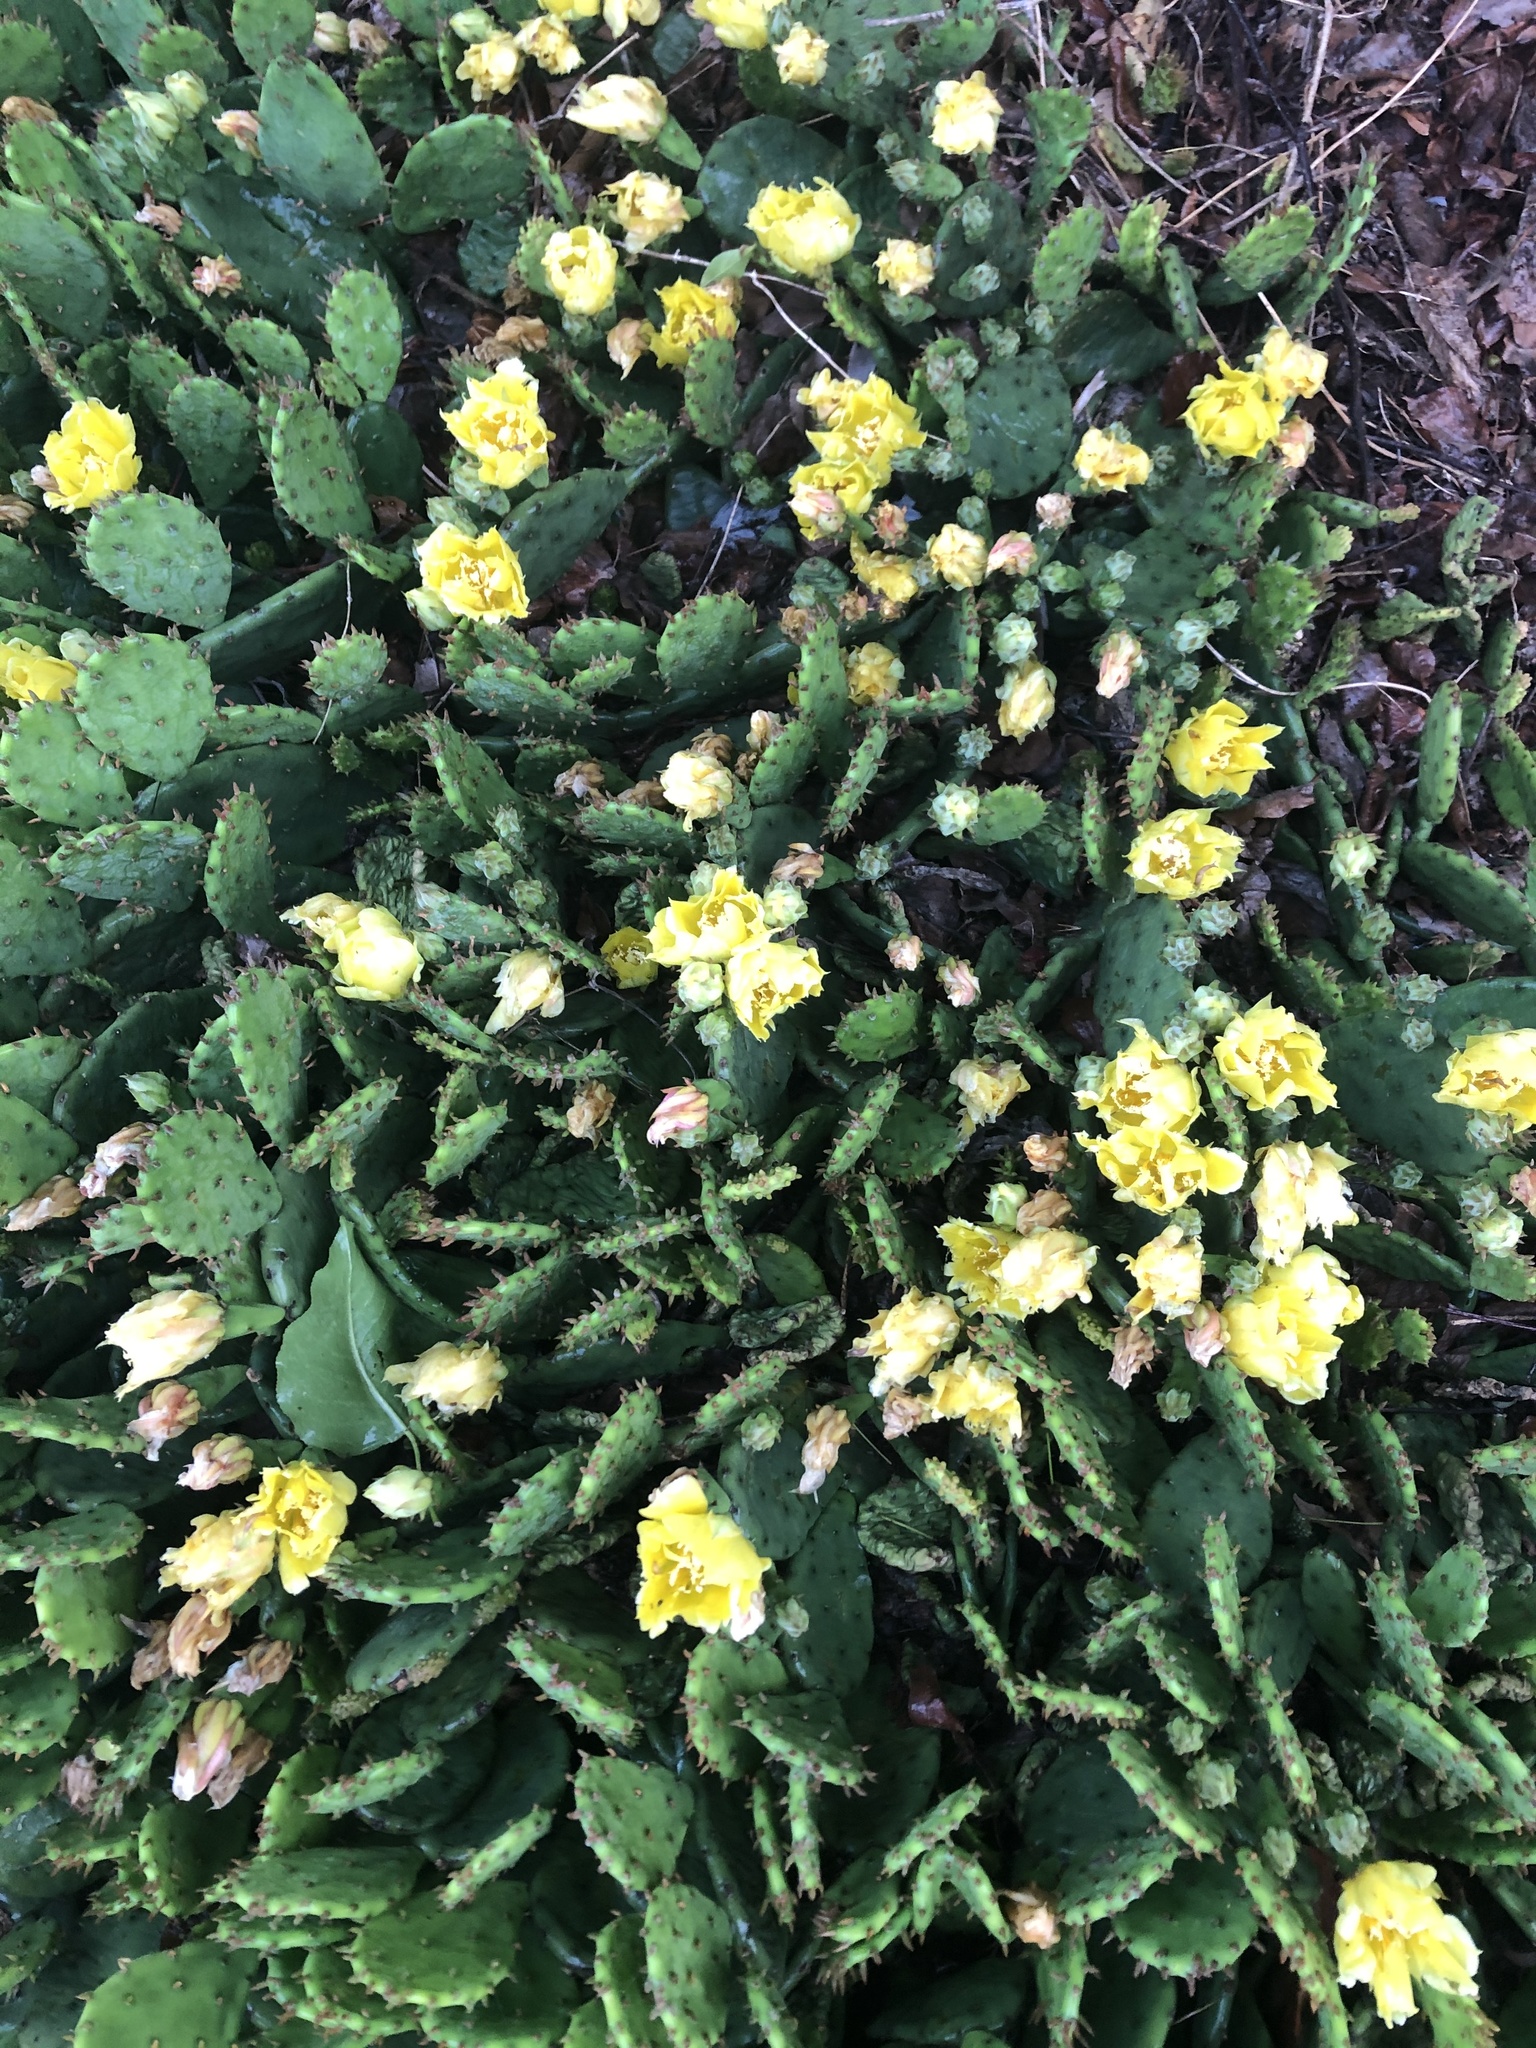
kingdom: Plantae
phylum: Tracheophyta
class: Magnoliopsida
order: Caryophyllales
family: Cactaceae
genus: Opuntia
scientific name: Opuntia humifusa
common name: Eastern prickly-pear
